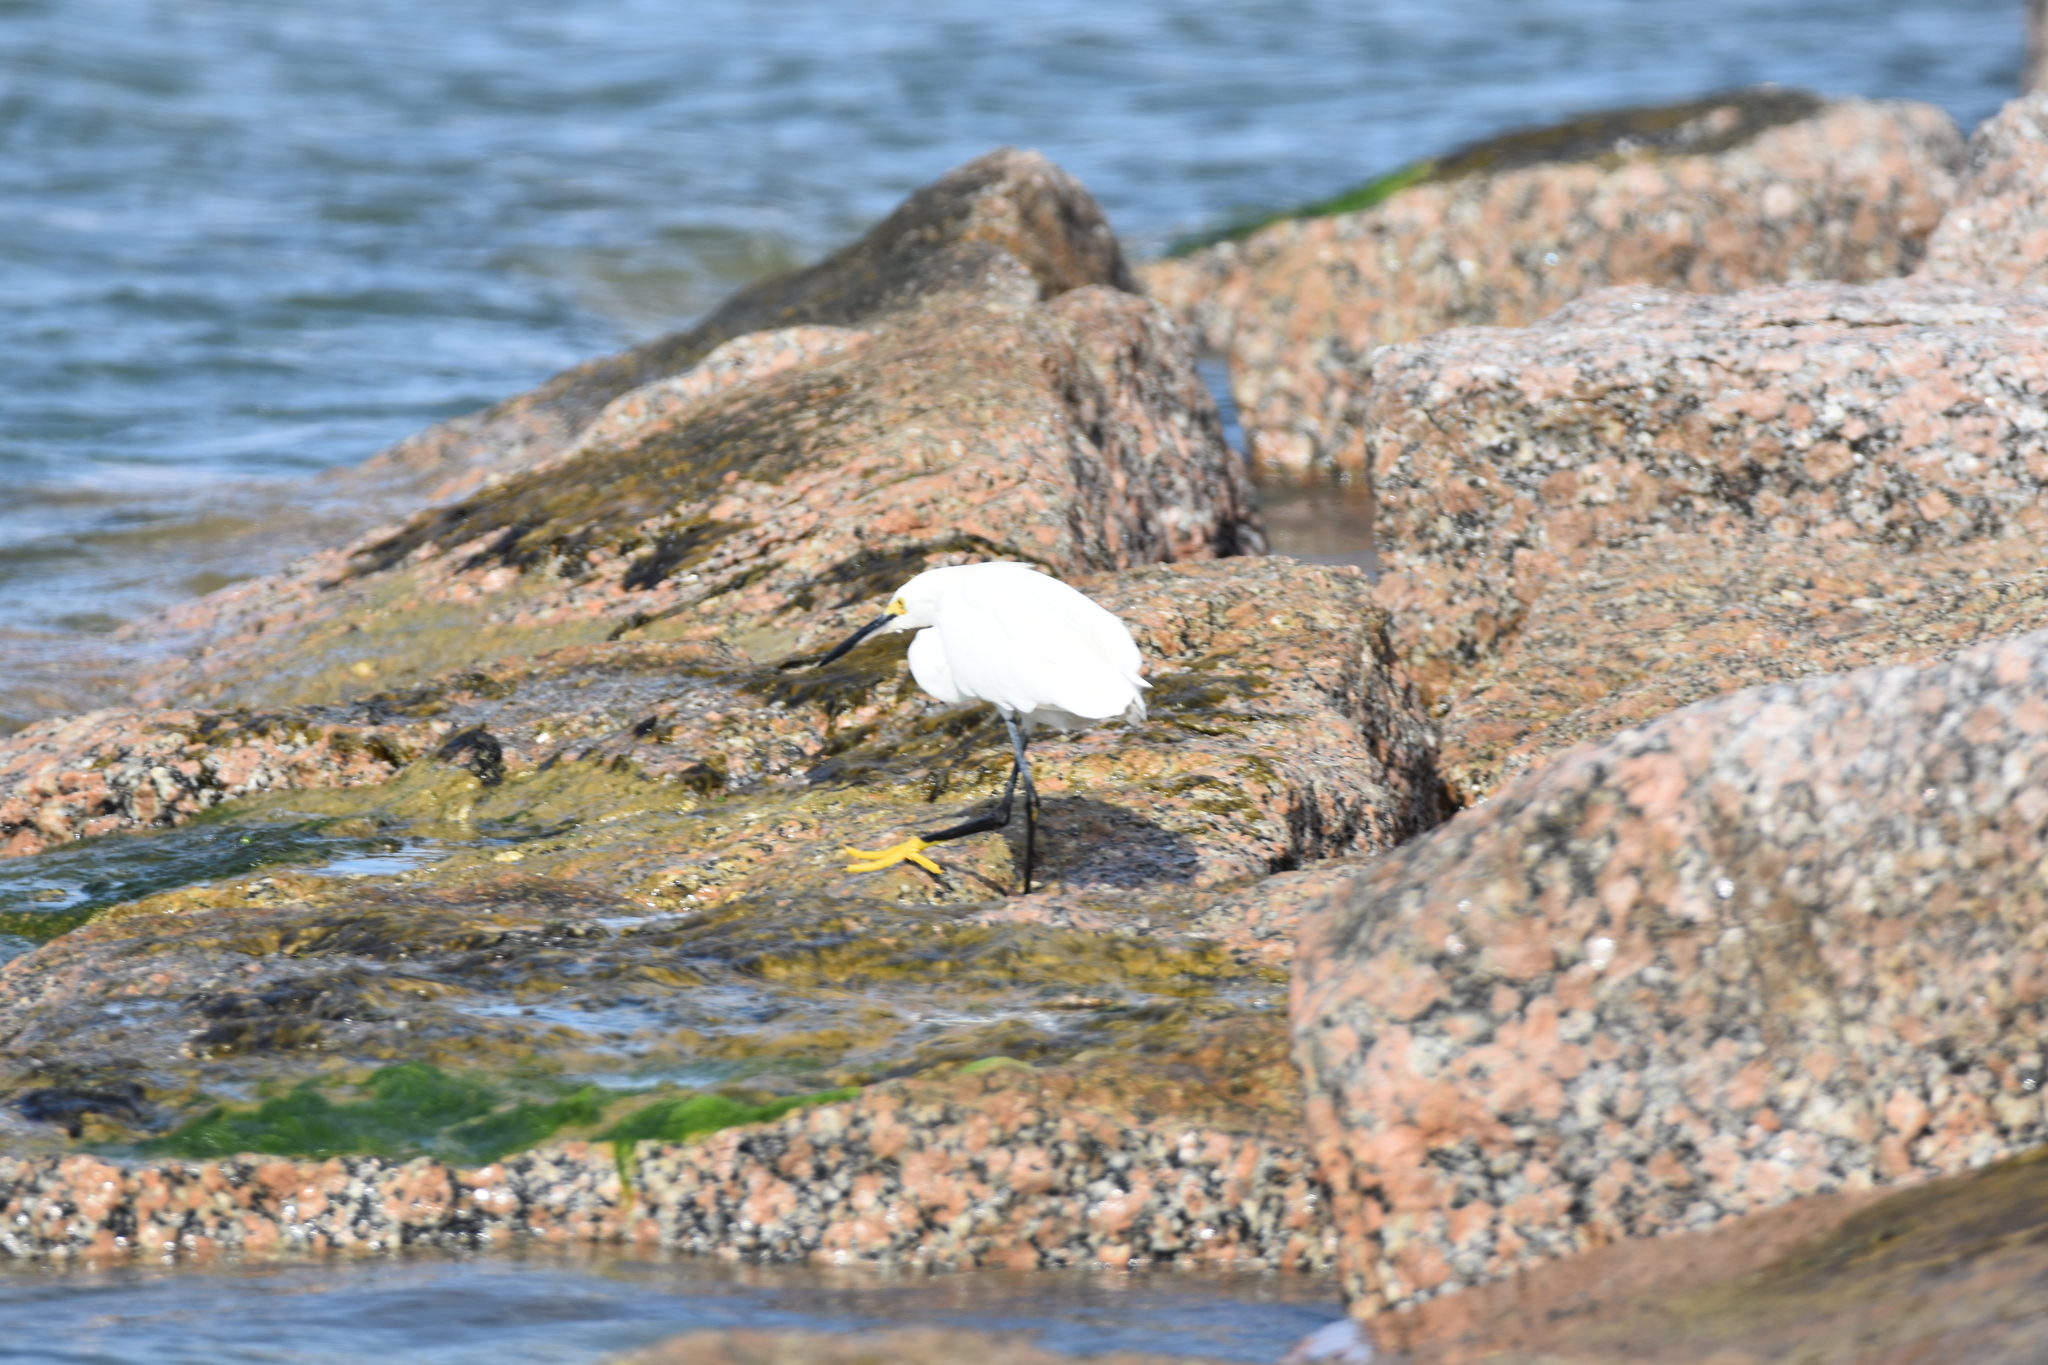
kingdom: Animalia
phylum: Chordata
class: Aves
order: Pelecaniformes
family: Ardeidae
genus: Egretta
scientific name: Egretta thula
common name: Snowy egret
